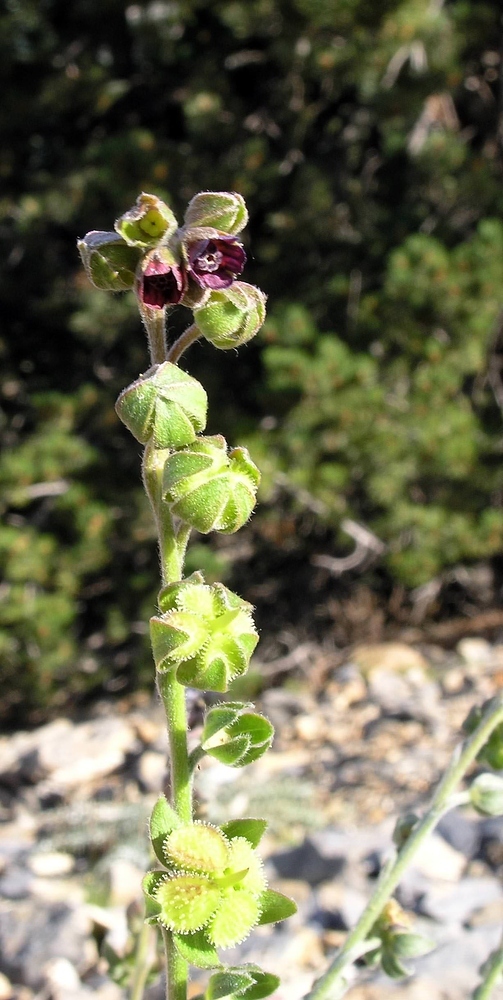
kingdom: Plantae
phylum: Tracheophyta
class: Magnoliopsida
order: Boraginales
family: Boraginaceae
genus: Cynoglossum
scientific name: Cynoglossum officinale
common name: Hound's-tongue
